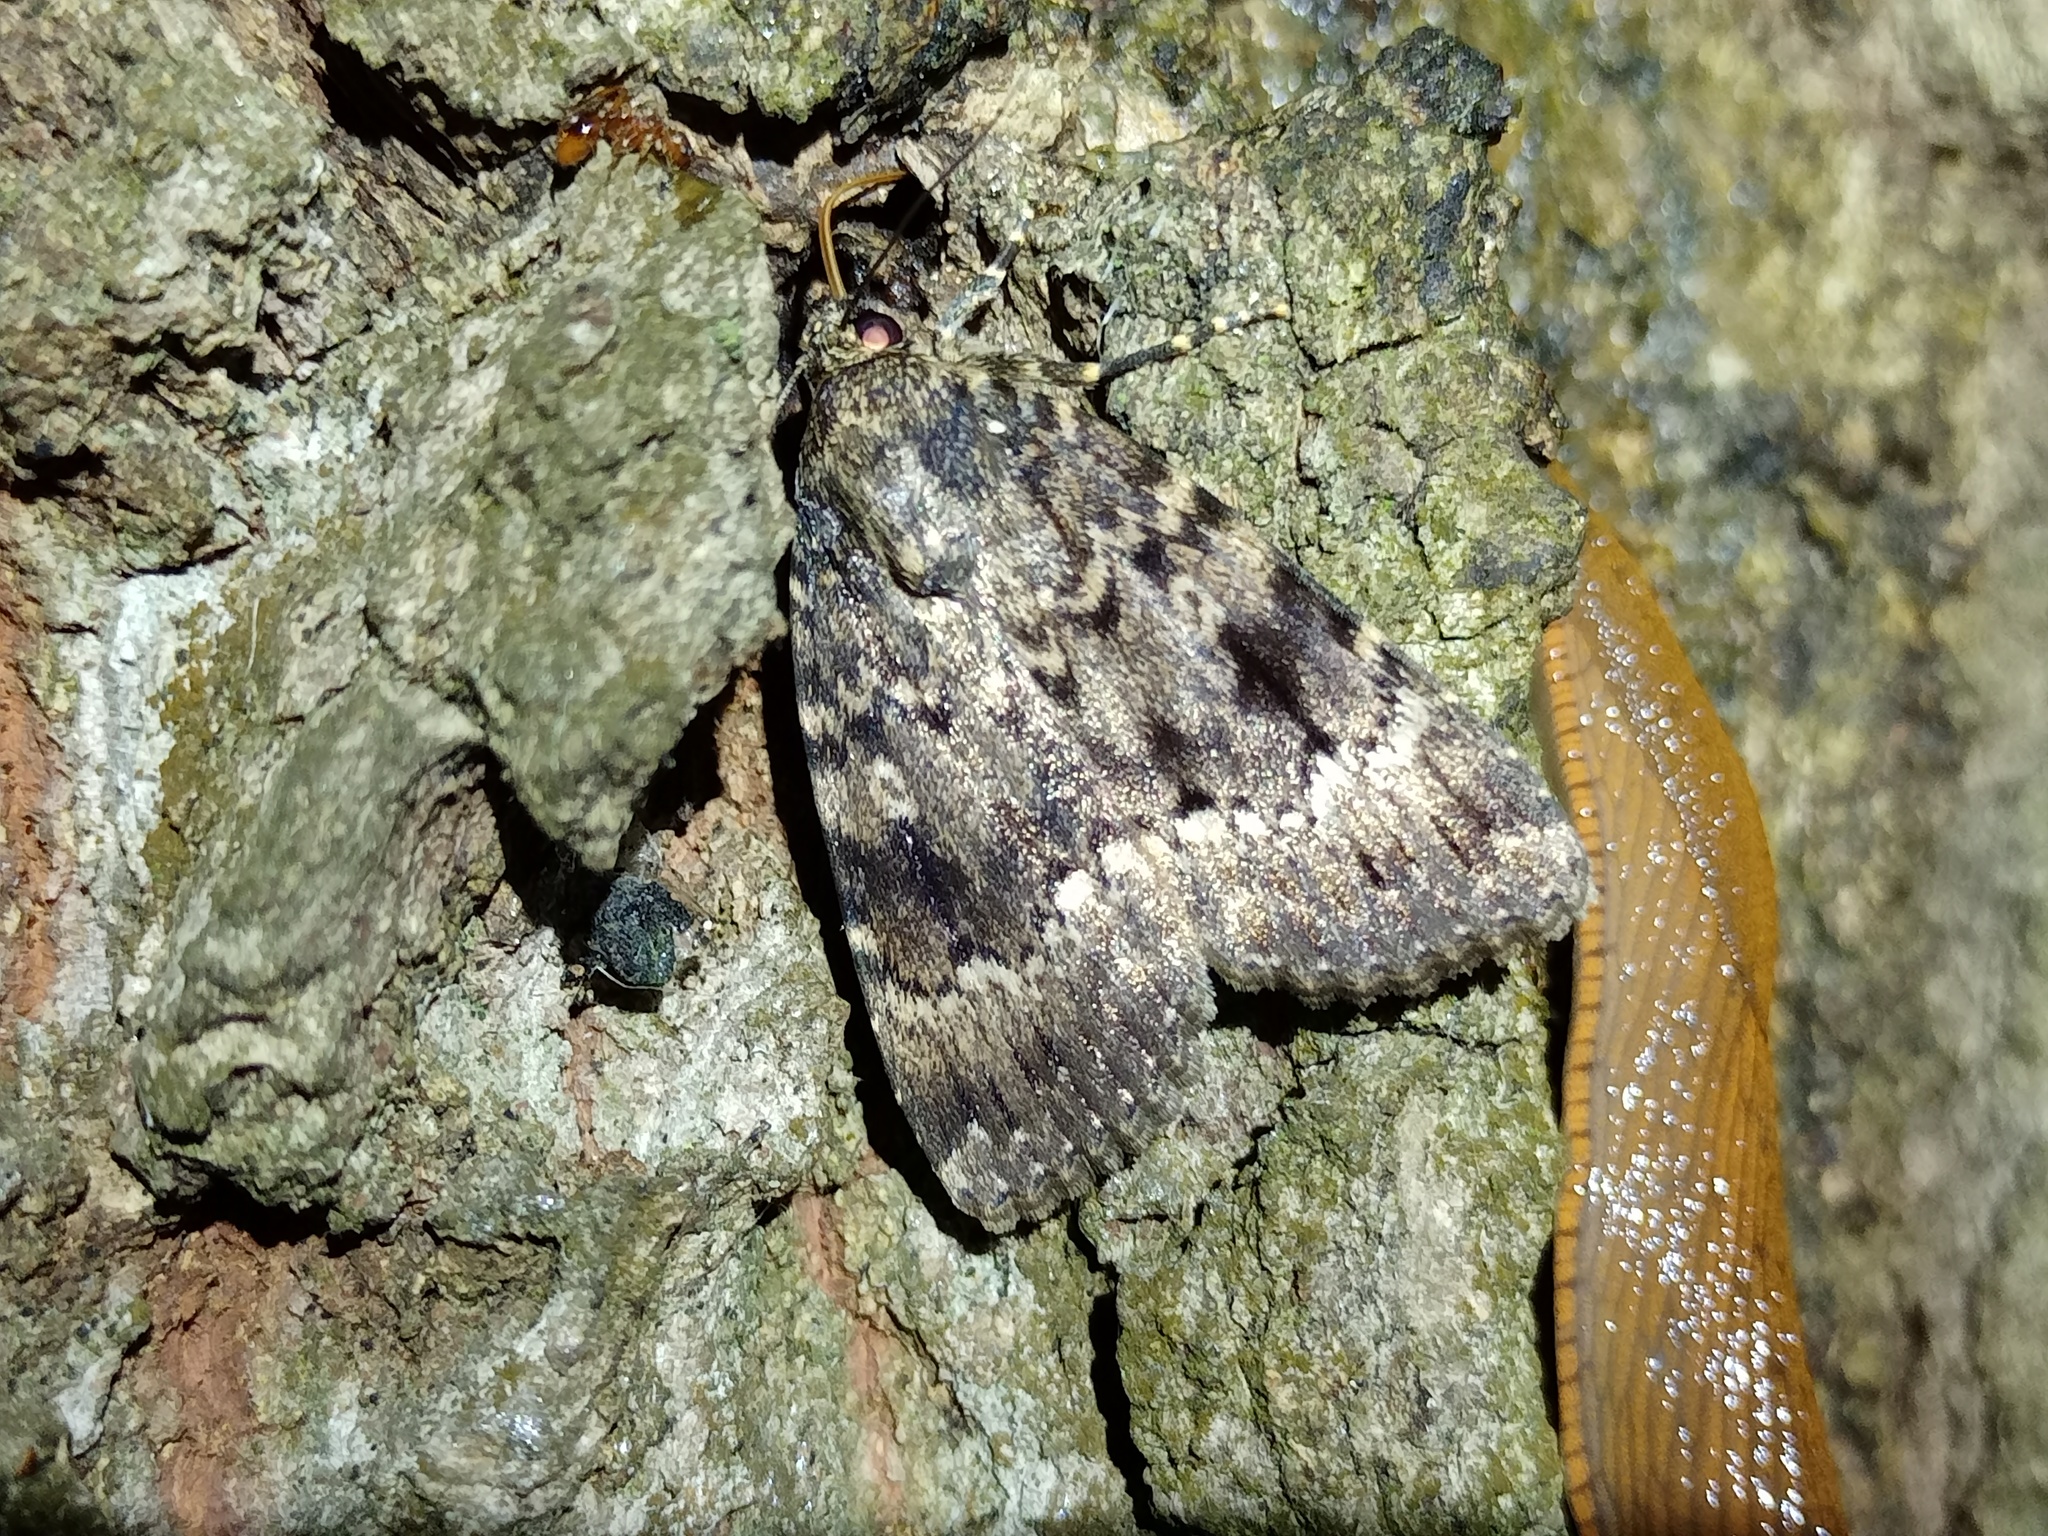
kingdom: Animalia
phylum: Arthropoda
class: Insecta
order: Lepidoptera
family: Noctuidae
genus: Amphipyra
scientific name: Amphipyra berbera
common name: Svensson's copper underwing
